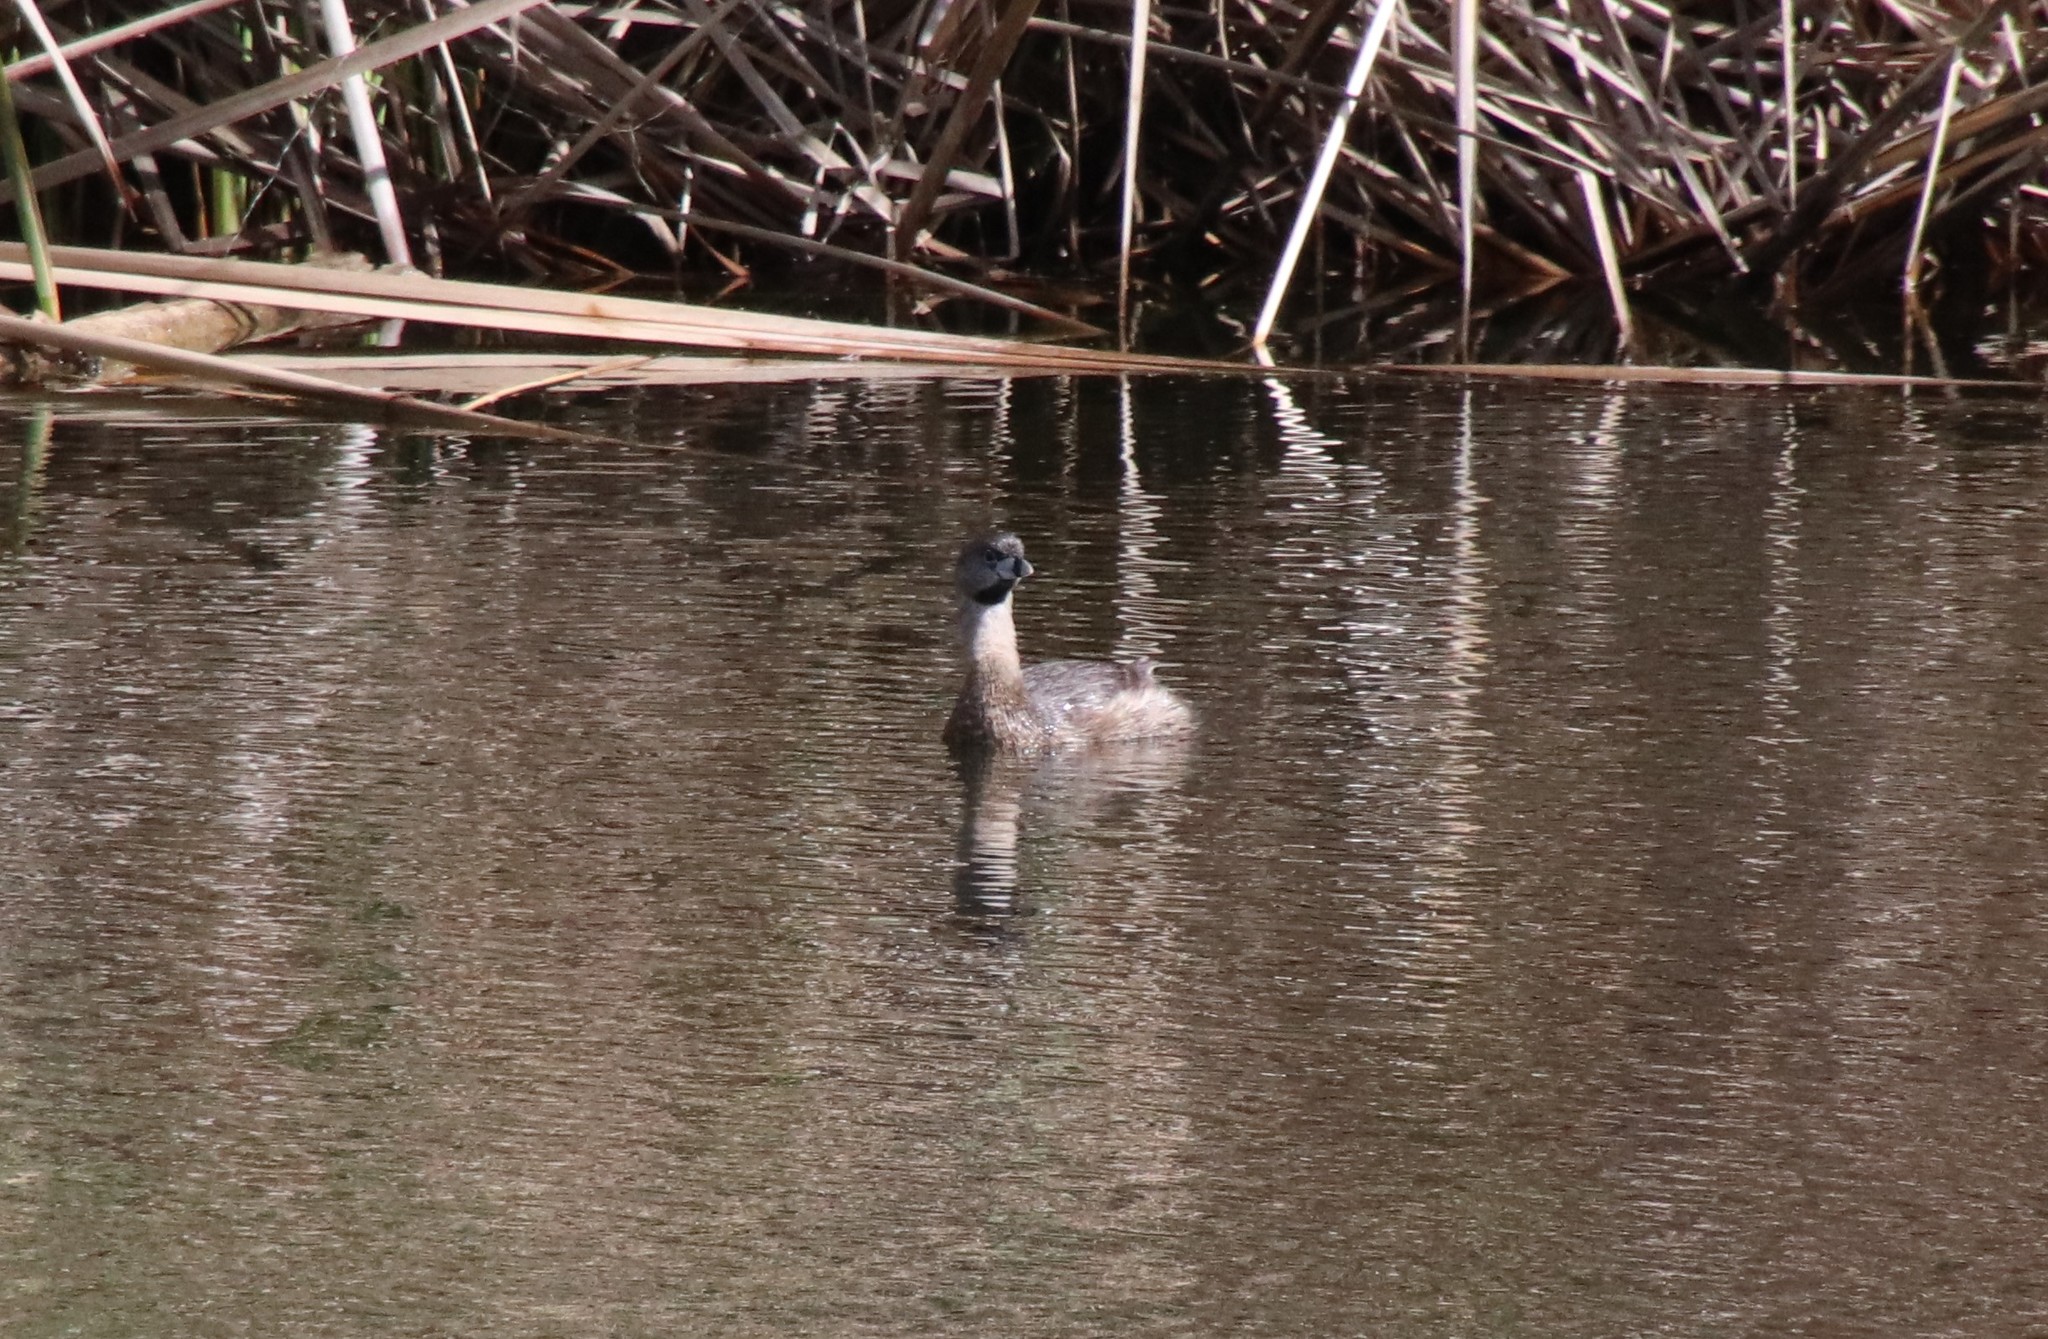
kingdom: Animalia
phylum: Chordata
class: Aves
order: Podicipediformes
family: Podicipedidae
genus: Podilymbus
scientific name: Podilymbus podiceps
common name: Pied-billed grebe
